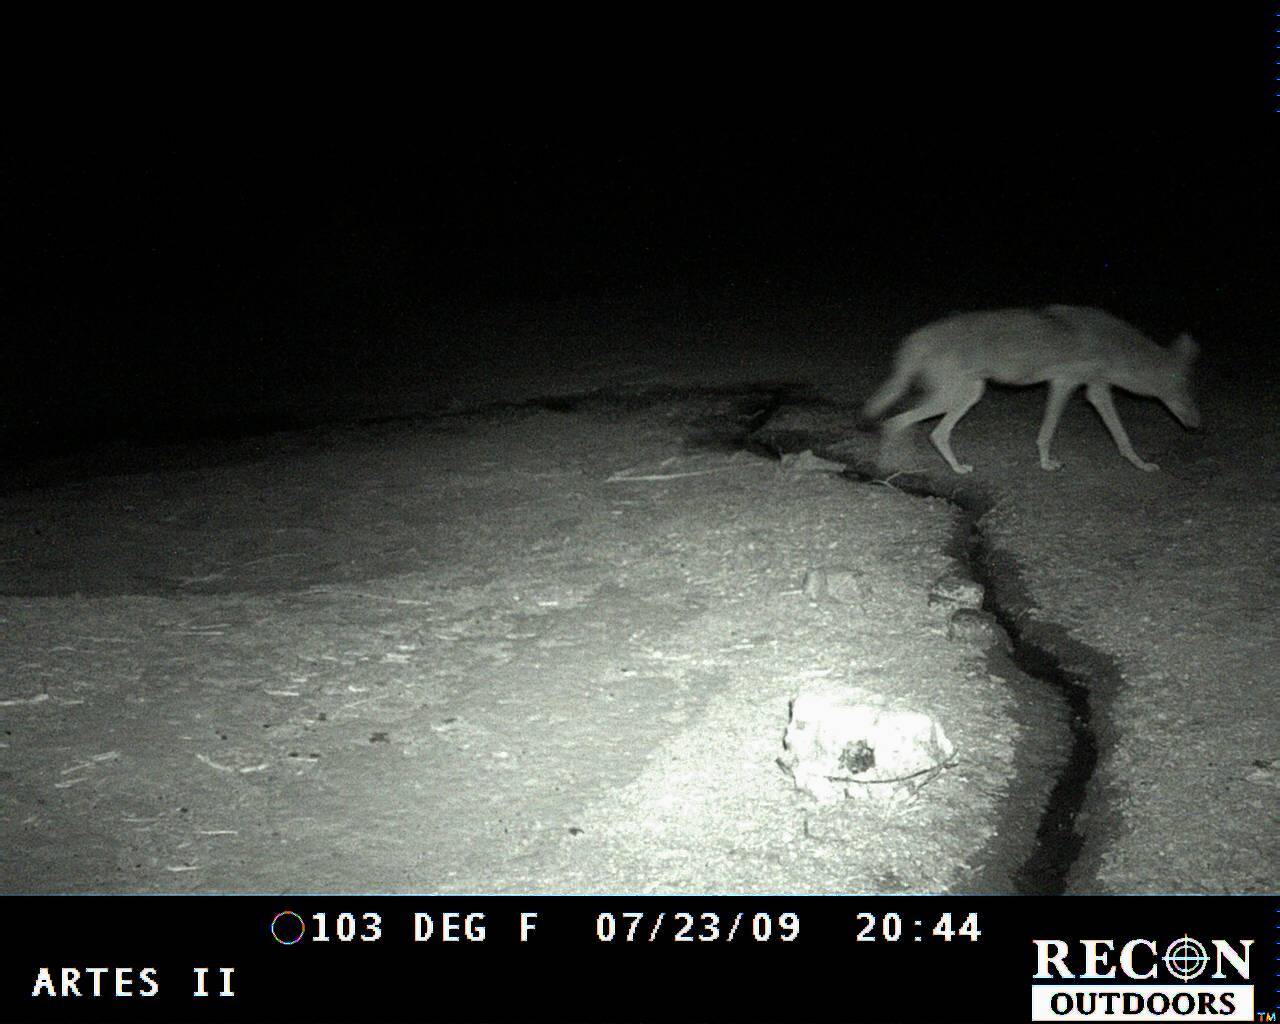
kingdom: Animalia
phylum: Chordata
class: Mammalia
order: Carnivora
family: Canidae
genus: Canis
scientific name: Canis latrans
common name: Coyote
